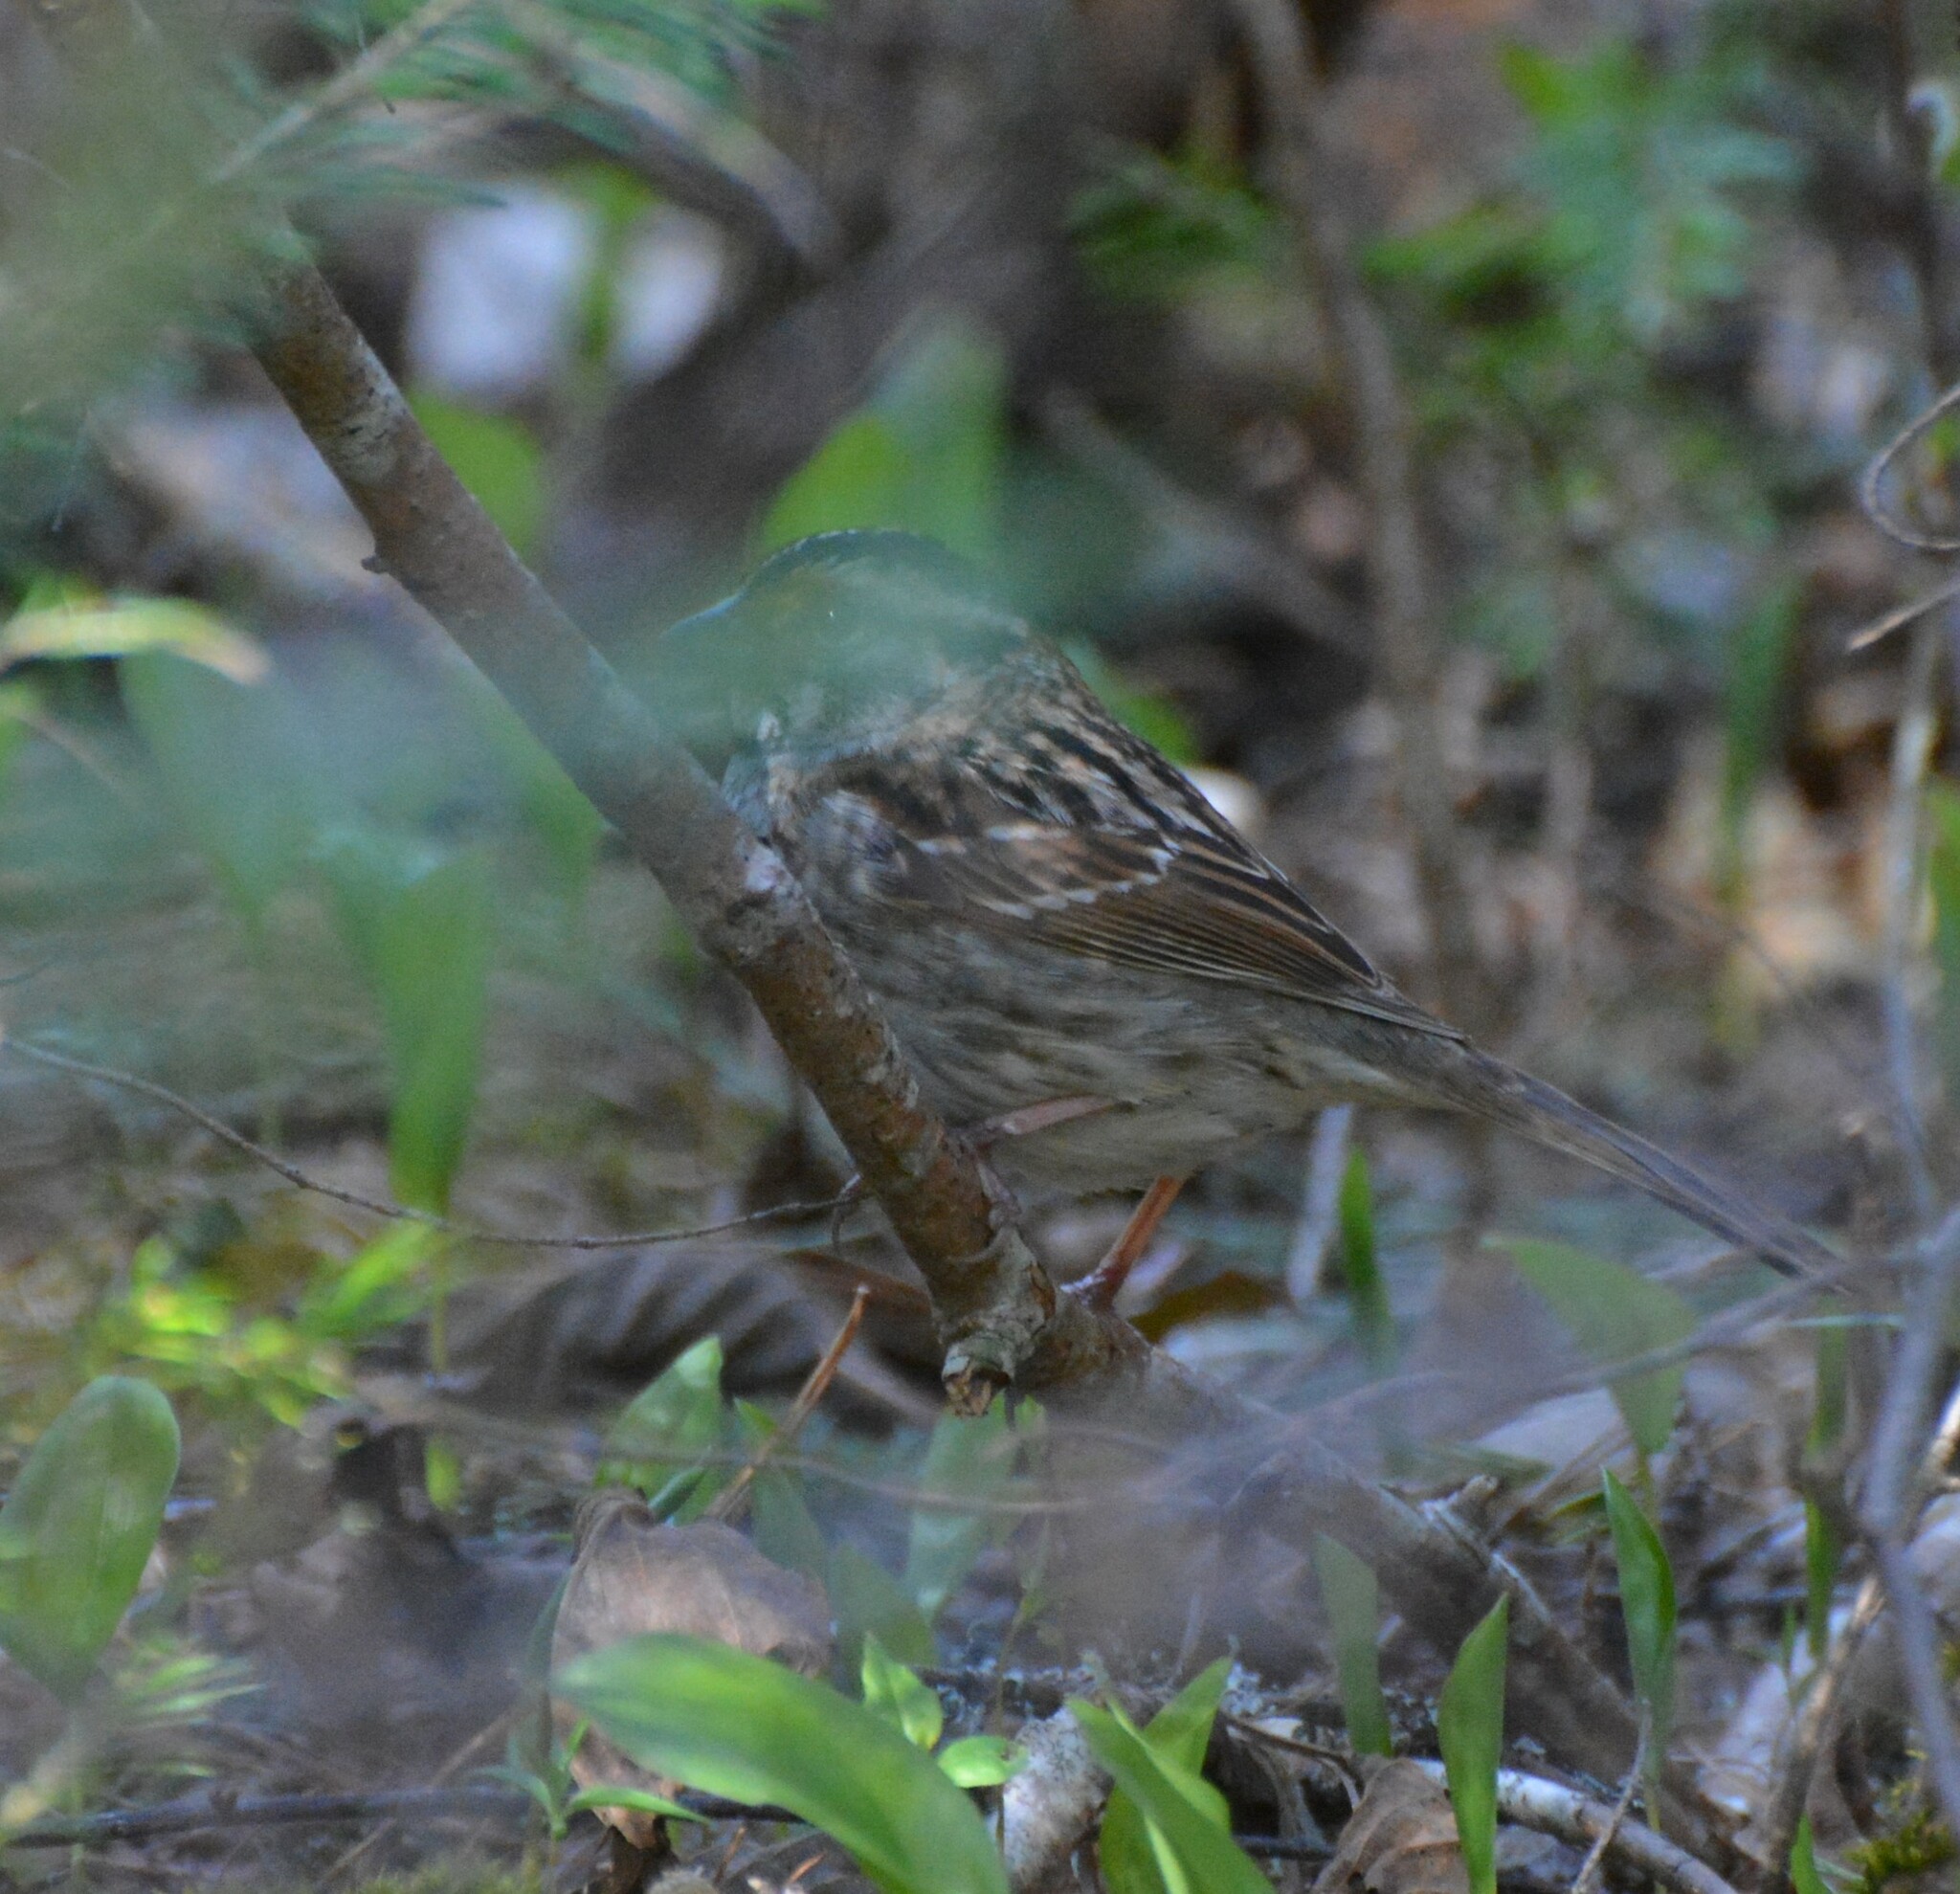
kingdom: Animalia
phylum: Chordata
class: Aves
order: Passeriformes
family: Passerellidae
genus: Zonotrichia
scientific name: Zonotrichia albicollis
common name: White-throated sparrow
